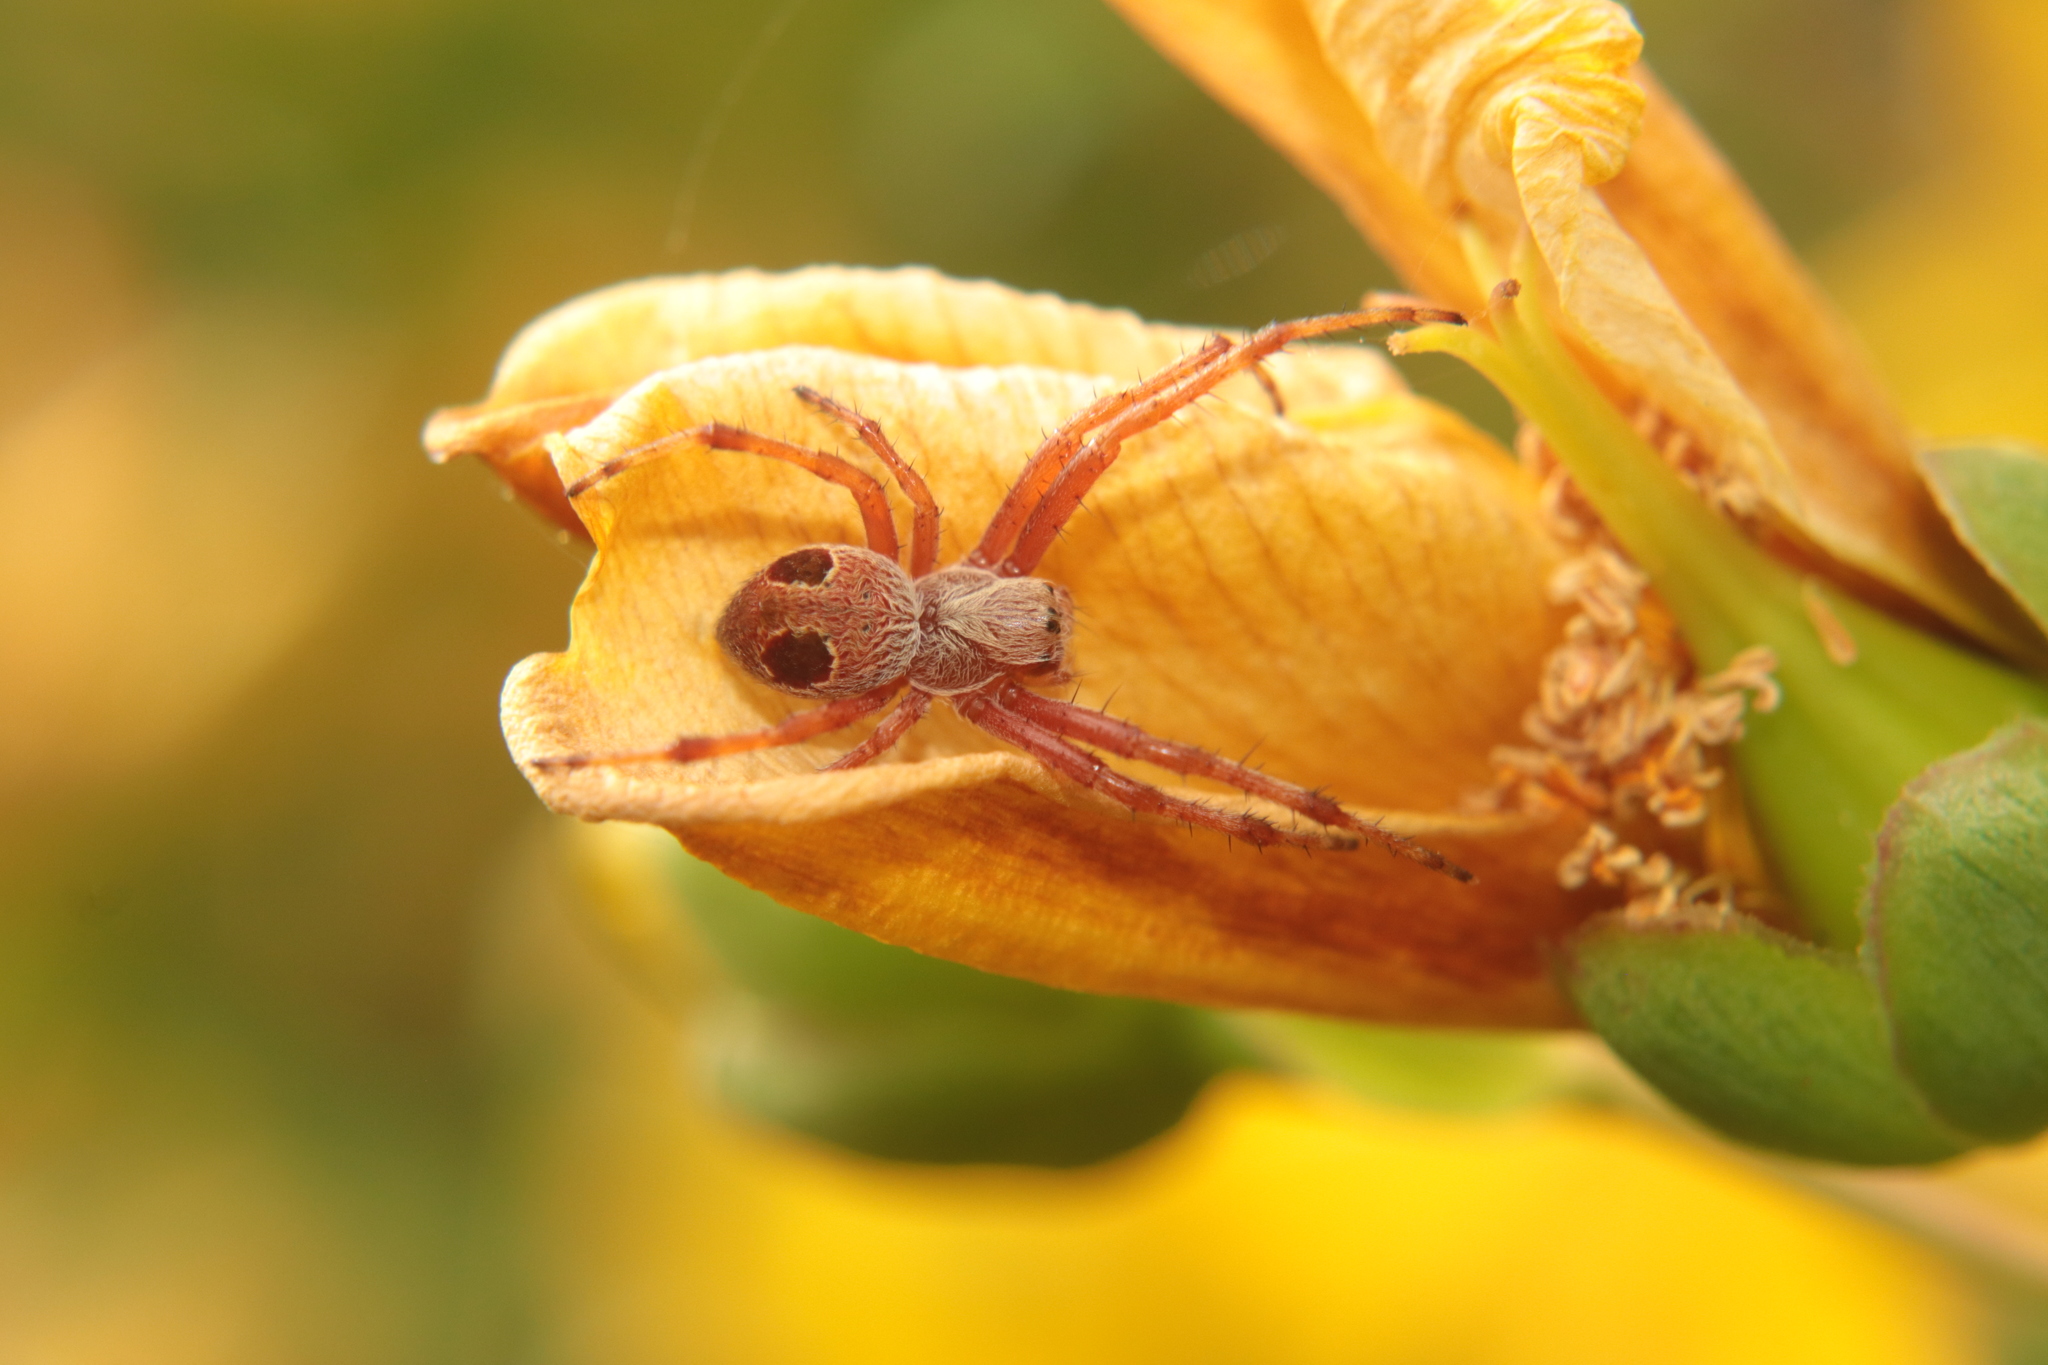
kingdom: Animalia
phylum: Arthropoda
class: Arachnida
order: Araneae
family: Araneidae
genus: Salsa
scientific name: Salsa fuliginata
